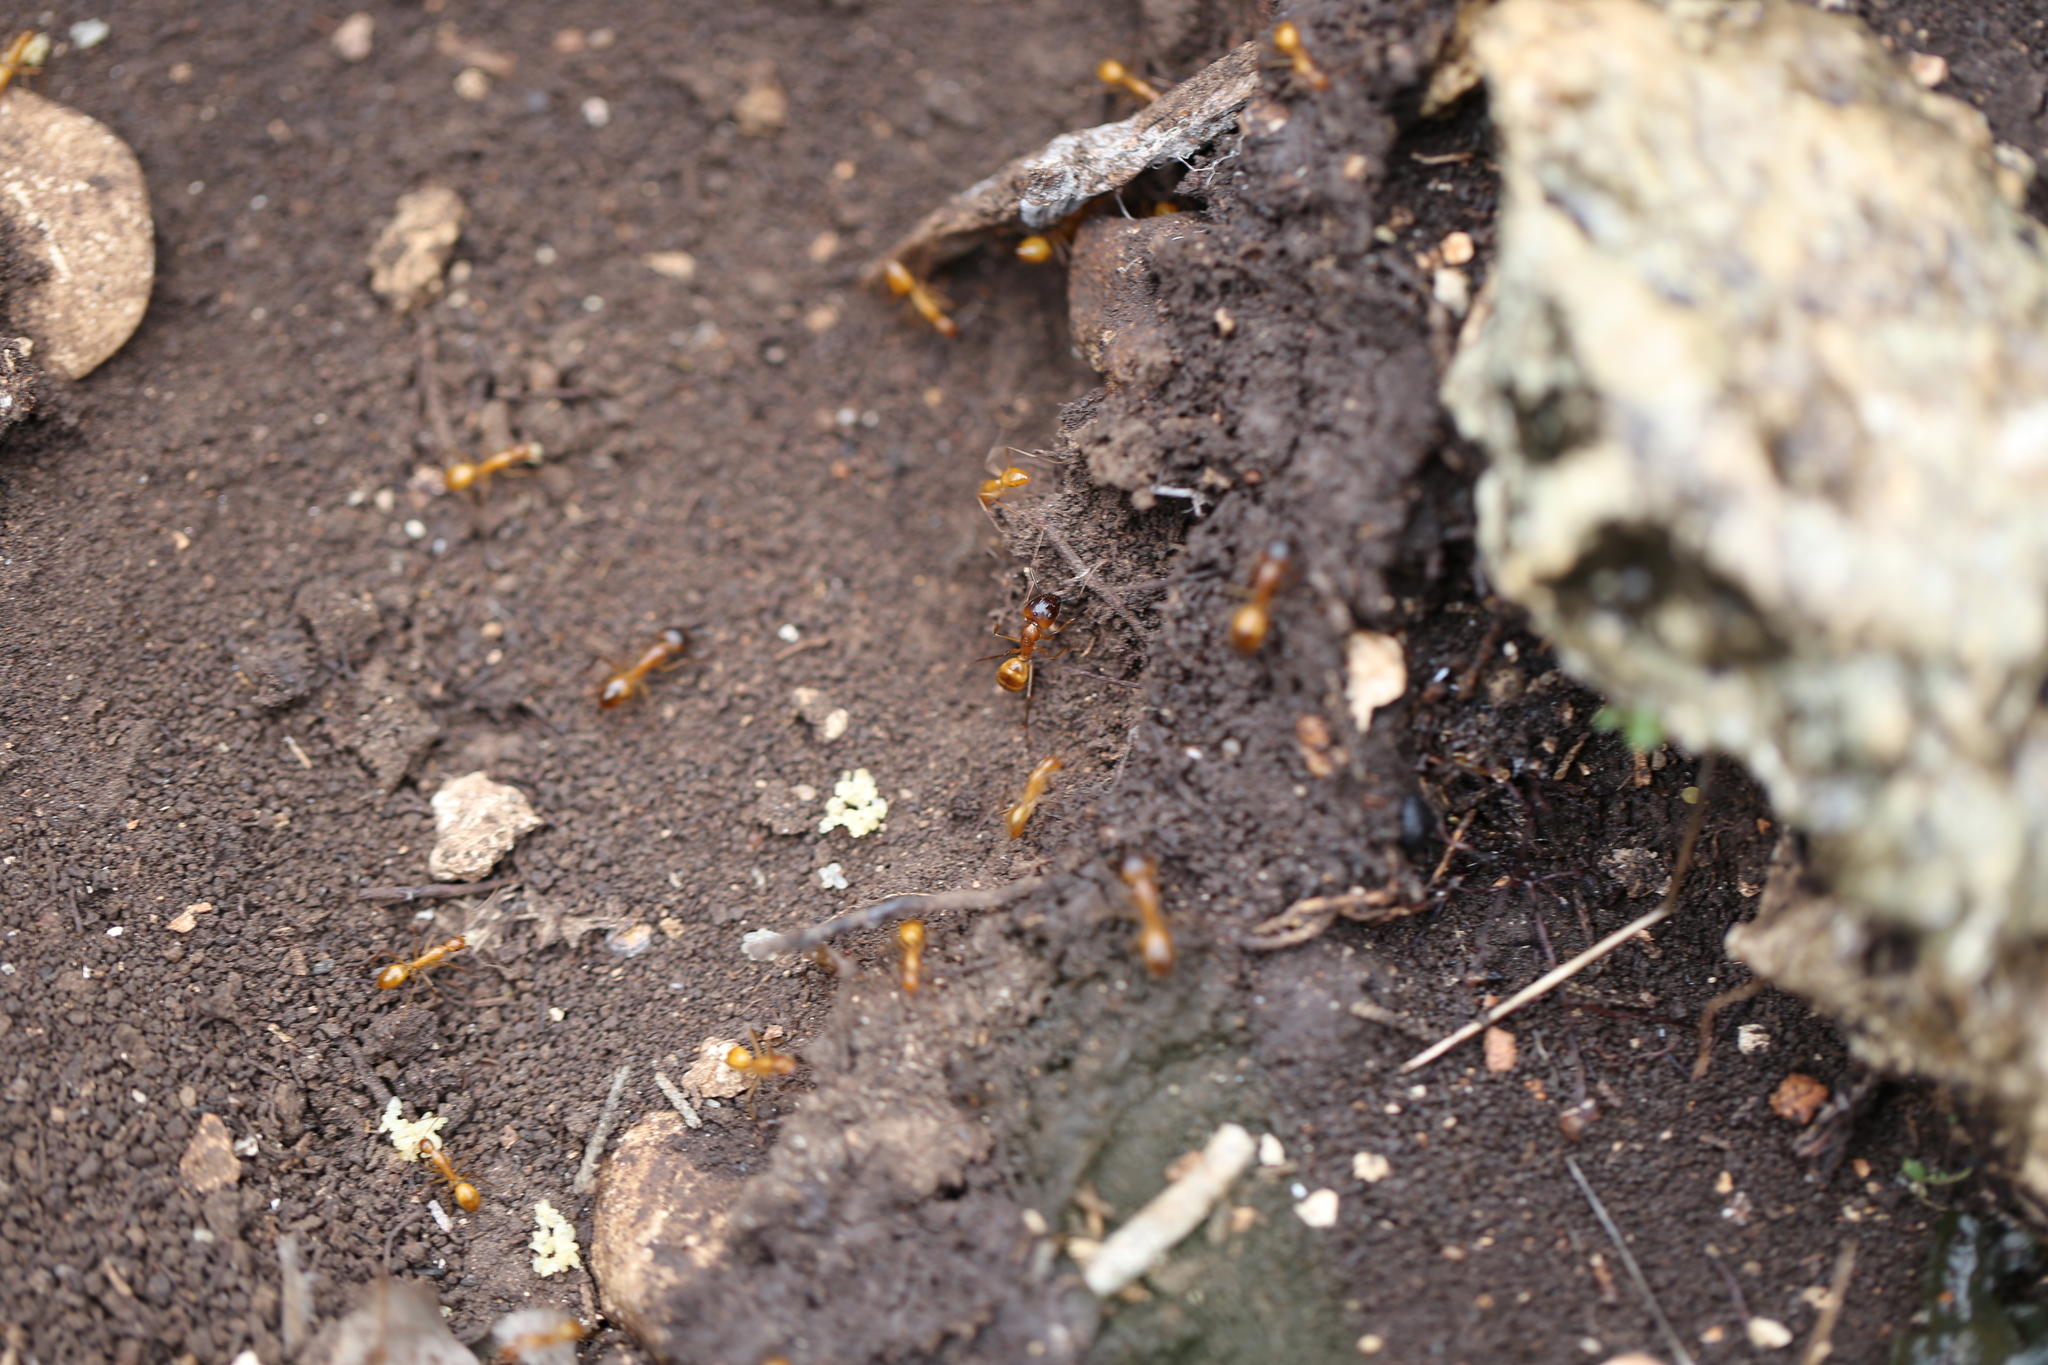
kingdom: Animalia
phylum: Arthropoda
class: Insecta
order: Hymenoptera
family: Formicidae
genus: Camponotus
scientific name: Camponotus festinatus
